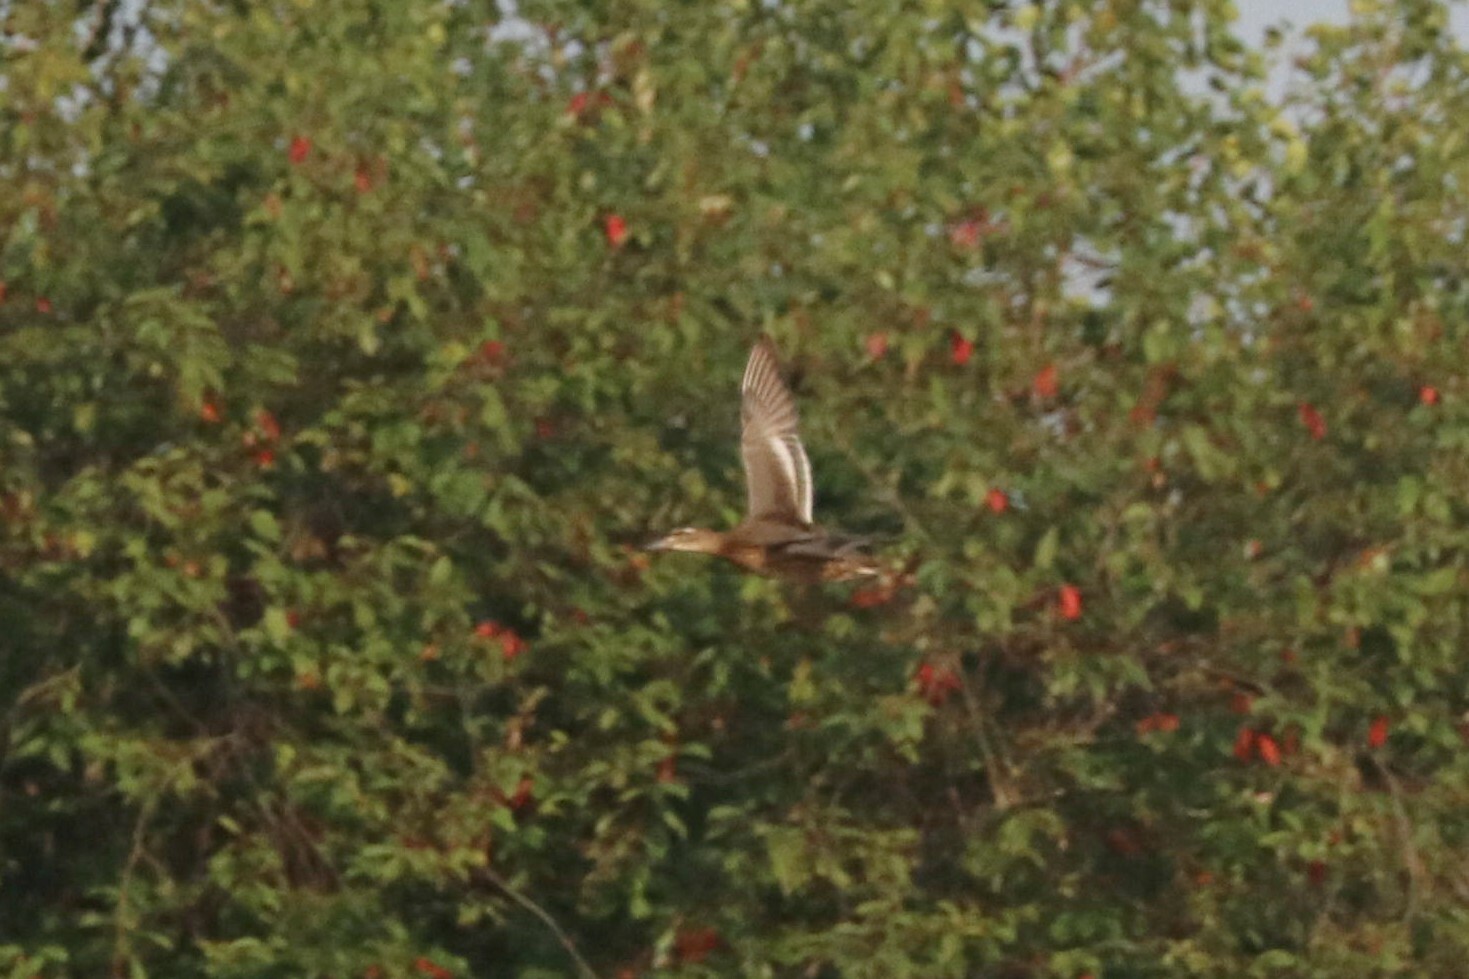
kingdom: Animalia
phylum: Chordata
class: Aves
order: Anseriformes
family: Anatidae
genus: Spatula
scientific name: Spatula querquedula
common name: Garganey
